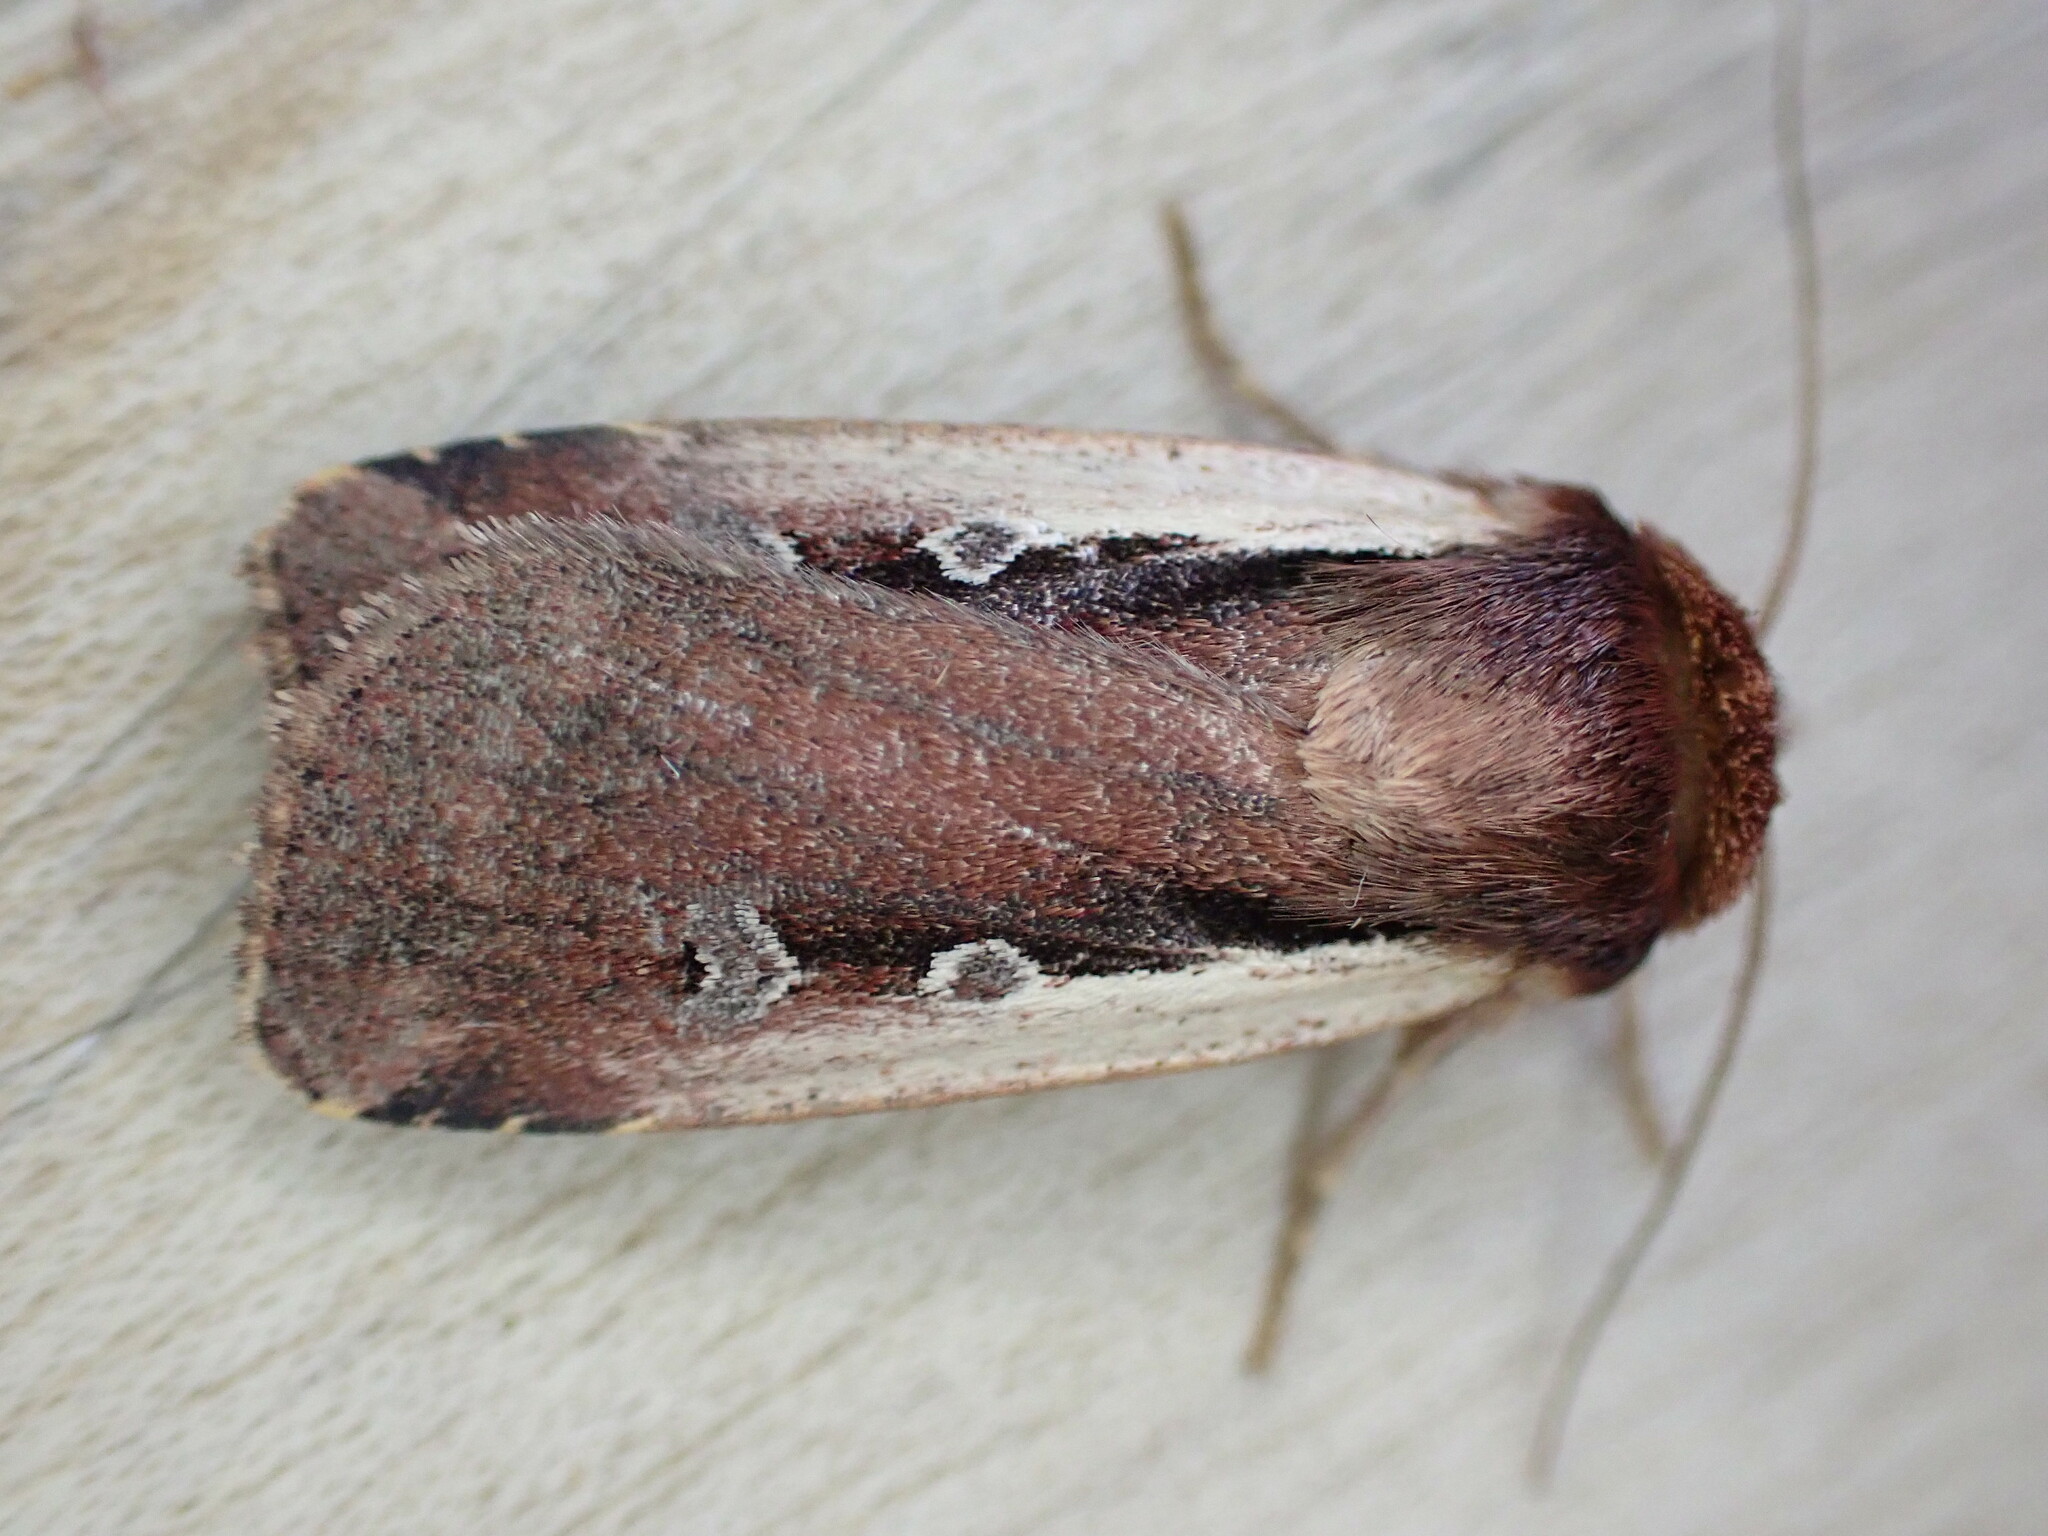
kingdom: Animalia
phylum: Arthropoda
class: Insecta
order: Lepidoptera
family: Noctuidae
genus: Ochropleura
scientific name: Ochropleura plecta
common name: Flame shoulder
